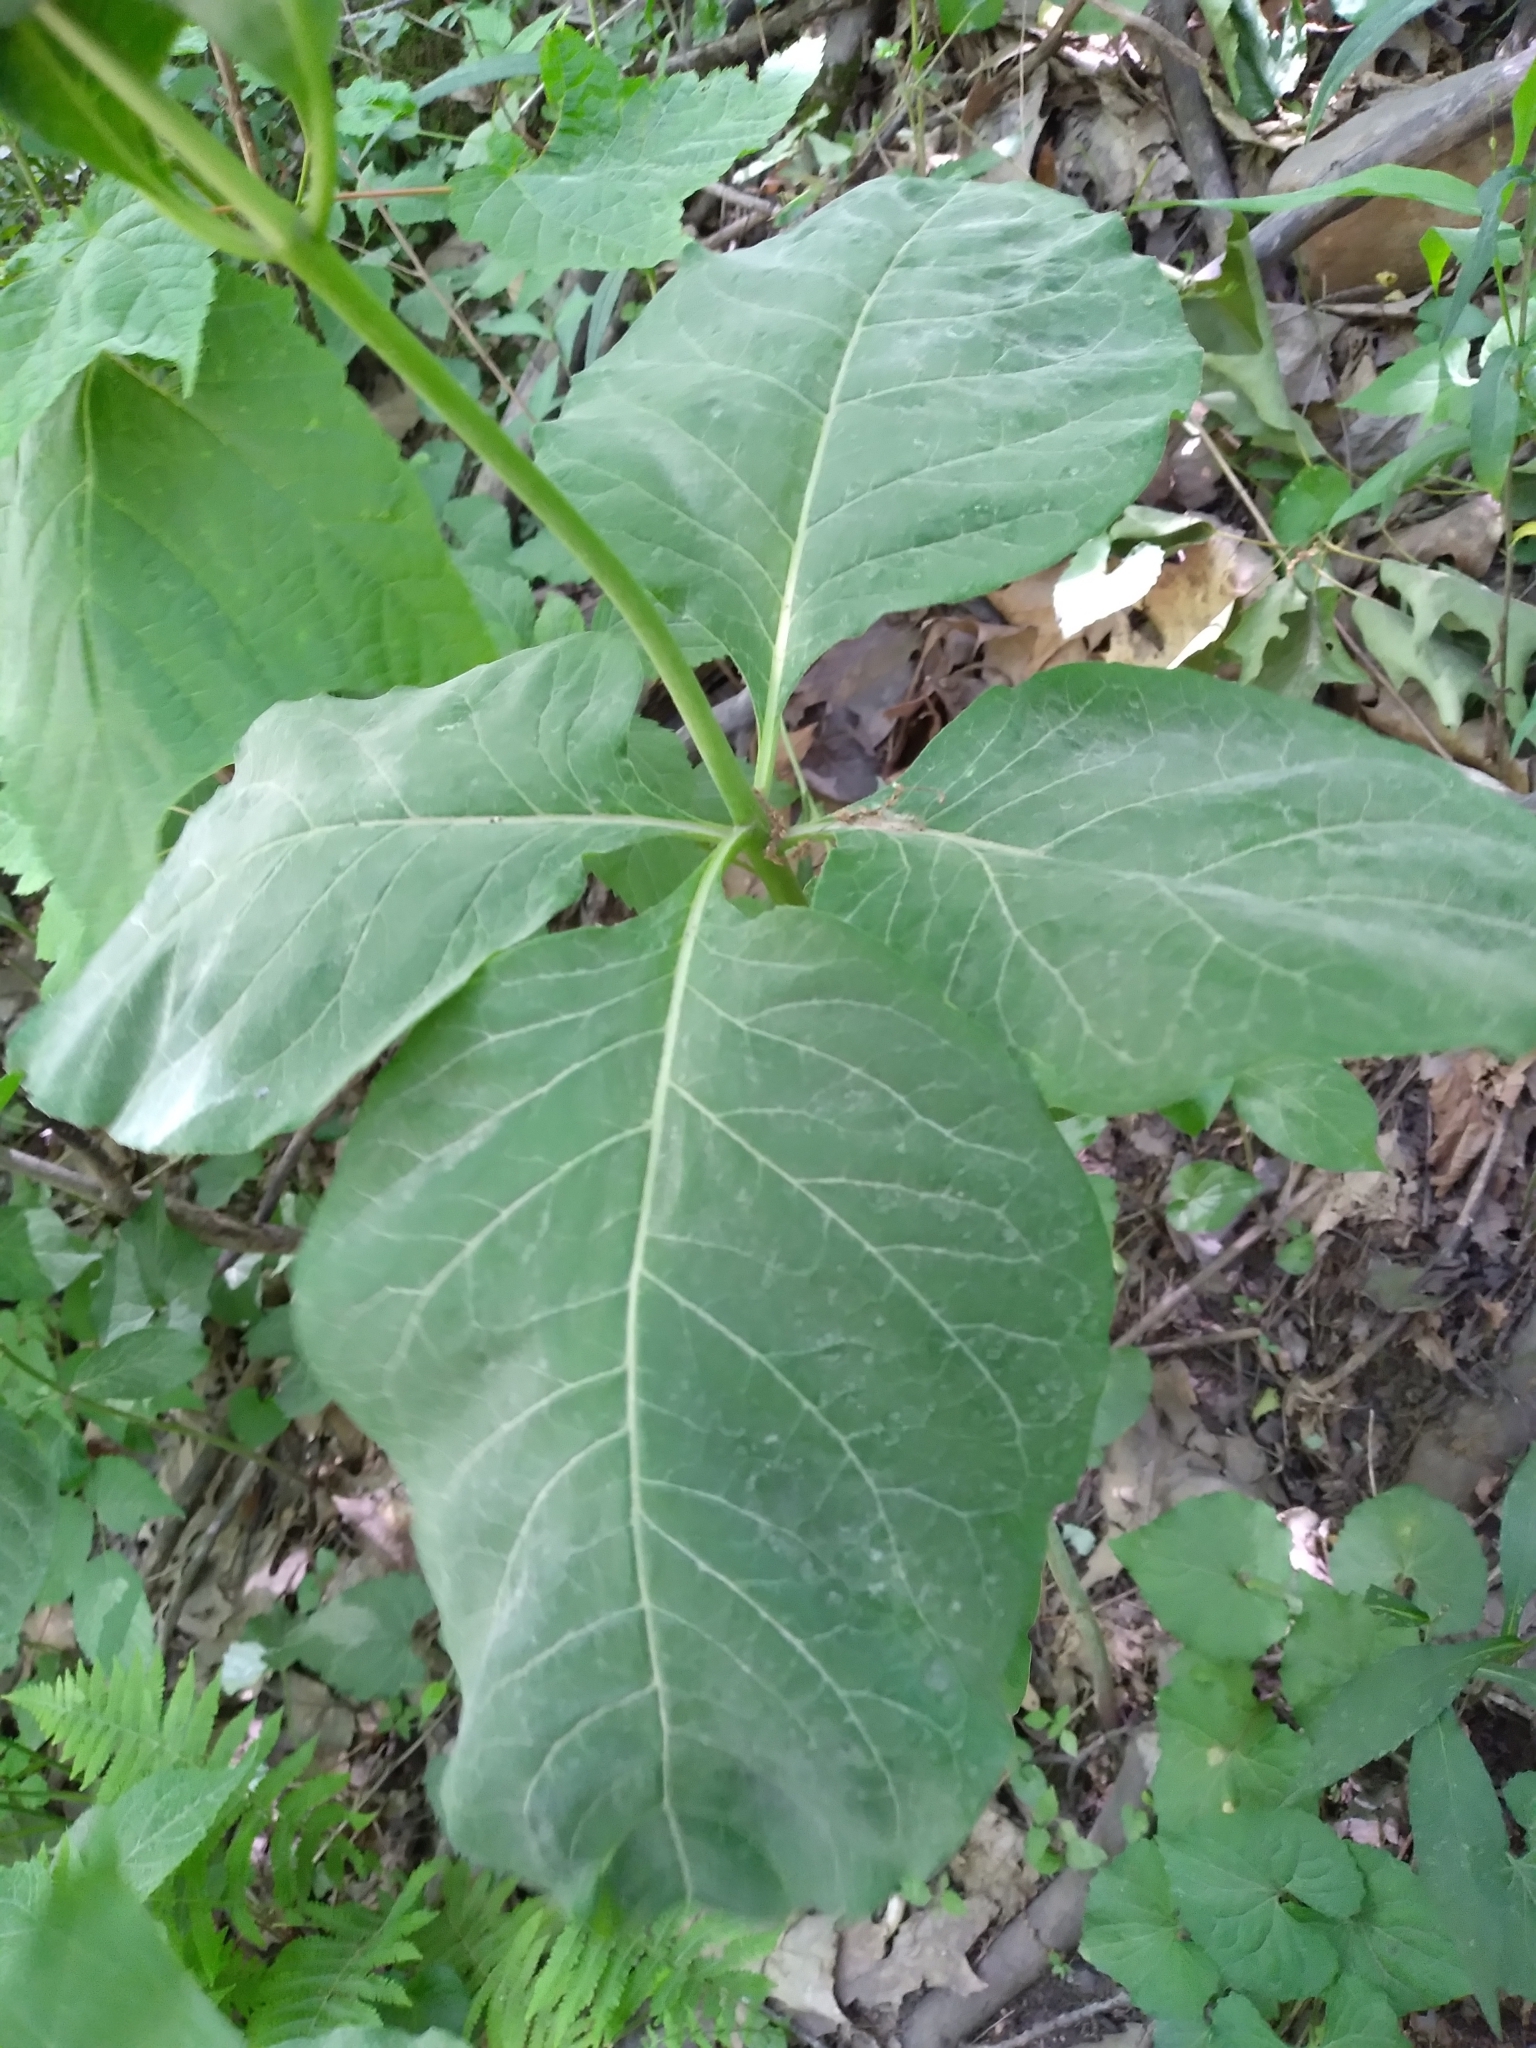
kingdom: Plantae
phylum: Tracheophyta
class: Magnoliopsida
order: Gentianales
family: Apocynaceae
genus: Asclepias
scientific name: Asclepias exaltata
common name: Poke milkweed
